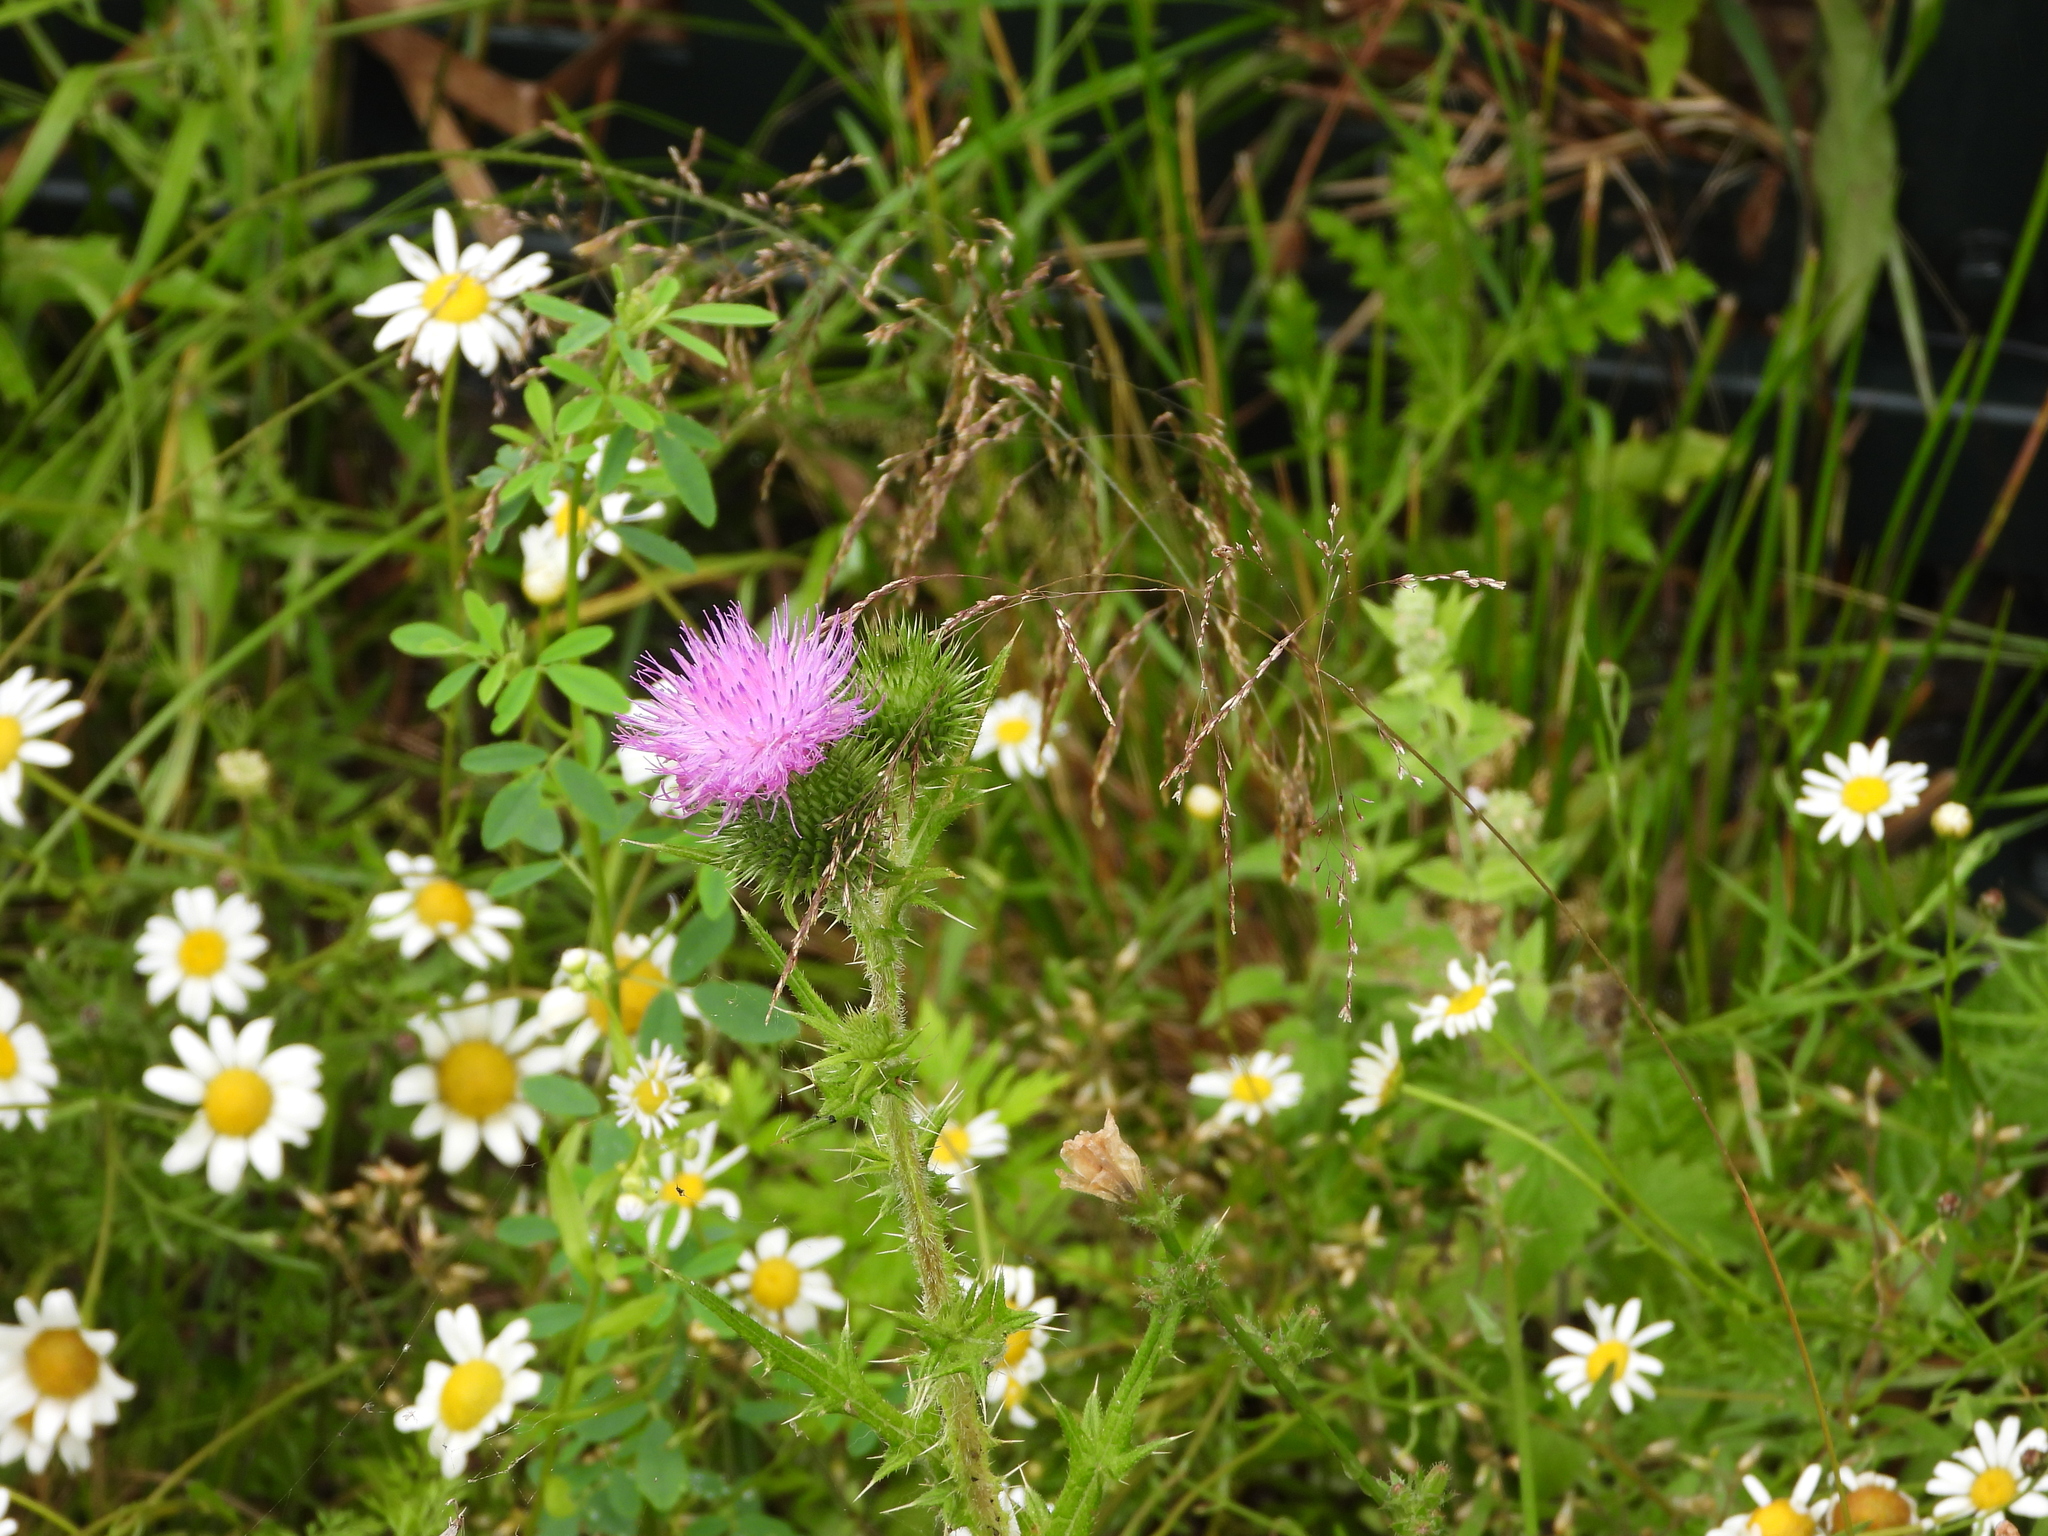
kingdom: Plantae
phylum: Tracheophyta
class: Magnoliopsida
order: Asterales
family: Asteraceae
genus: Cirsium
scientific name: Cirsium vulgare
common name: Bull thistle
